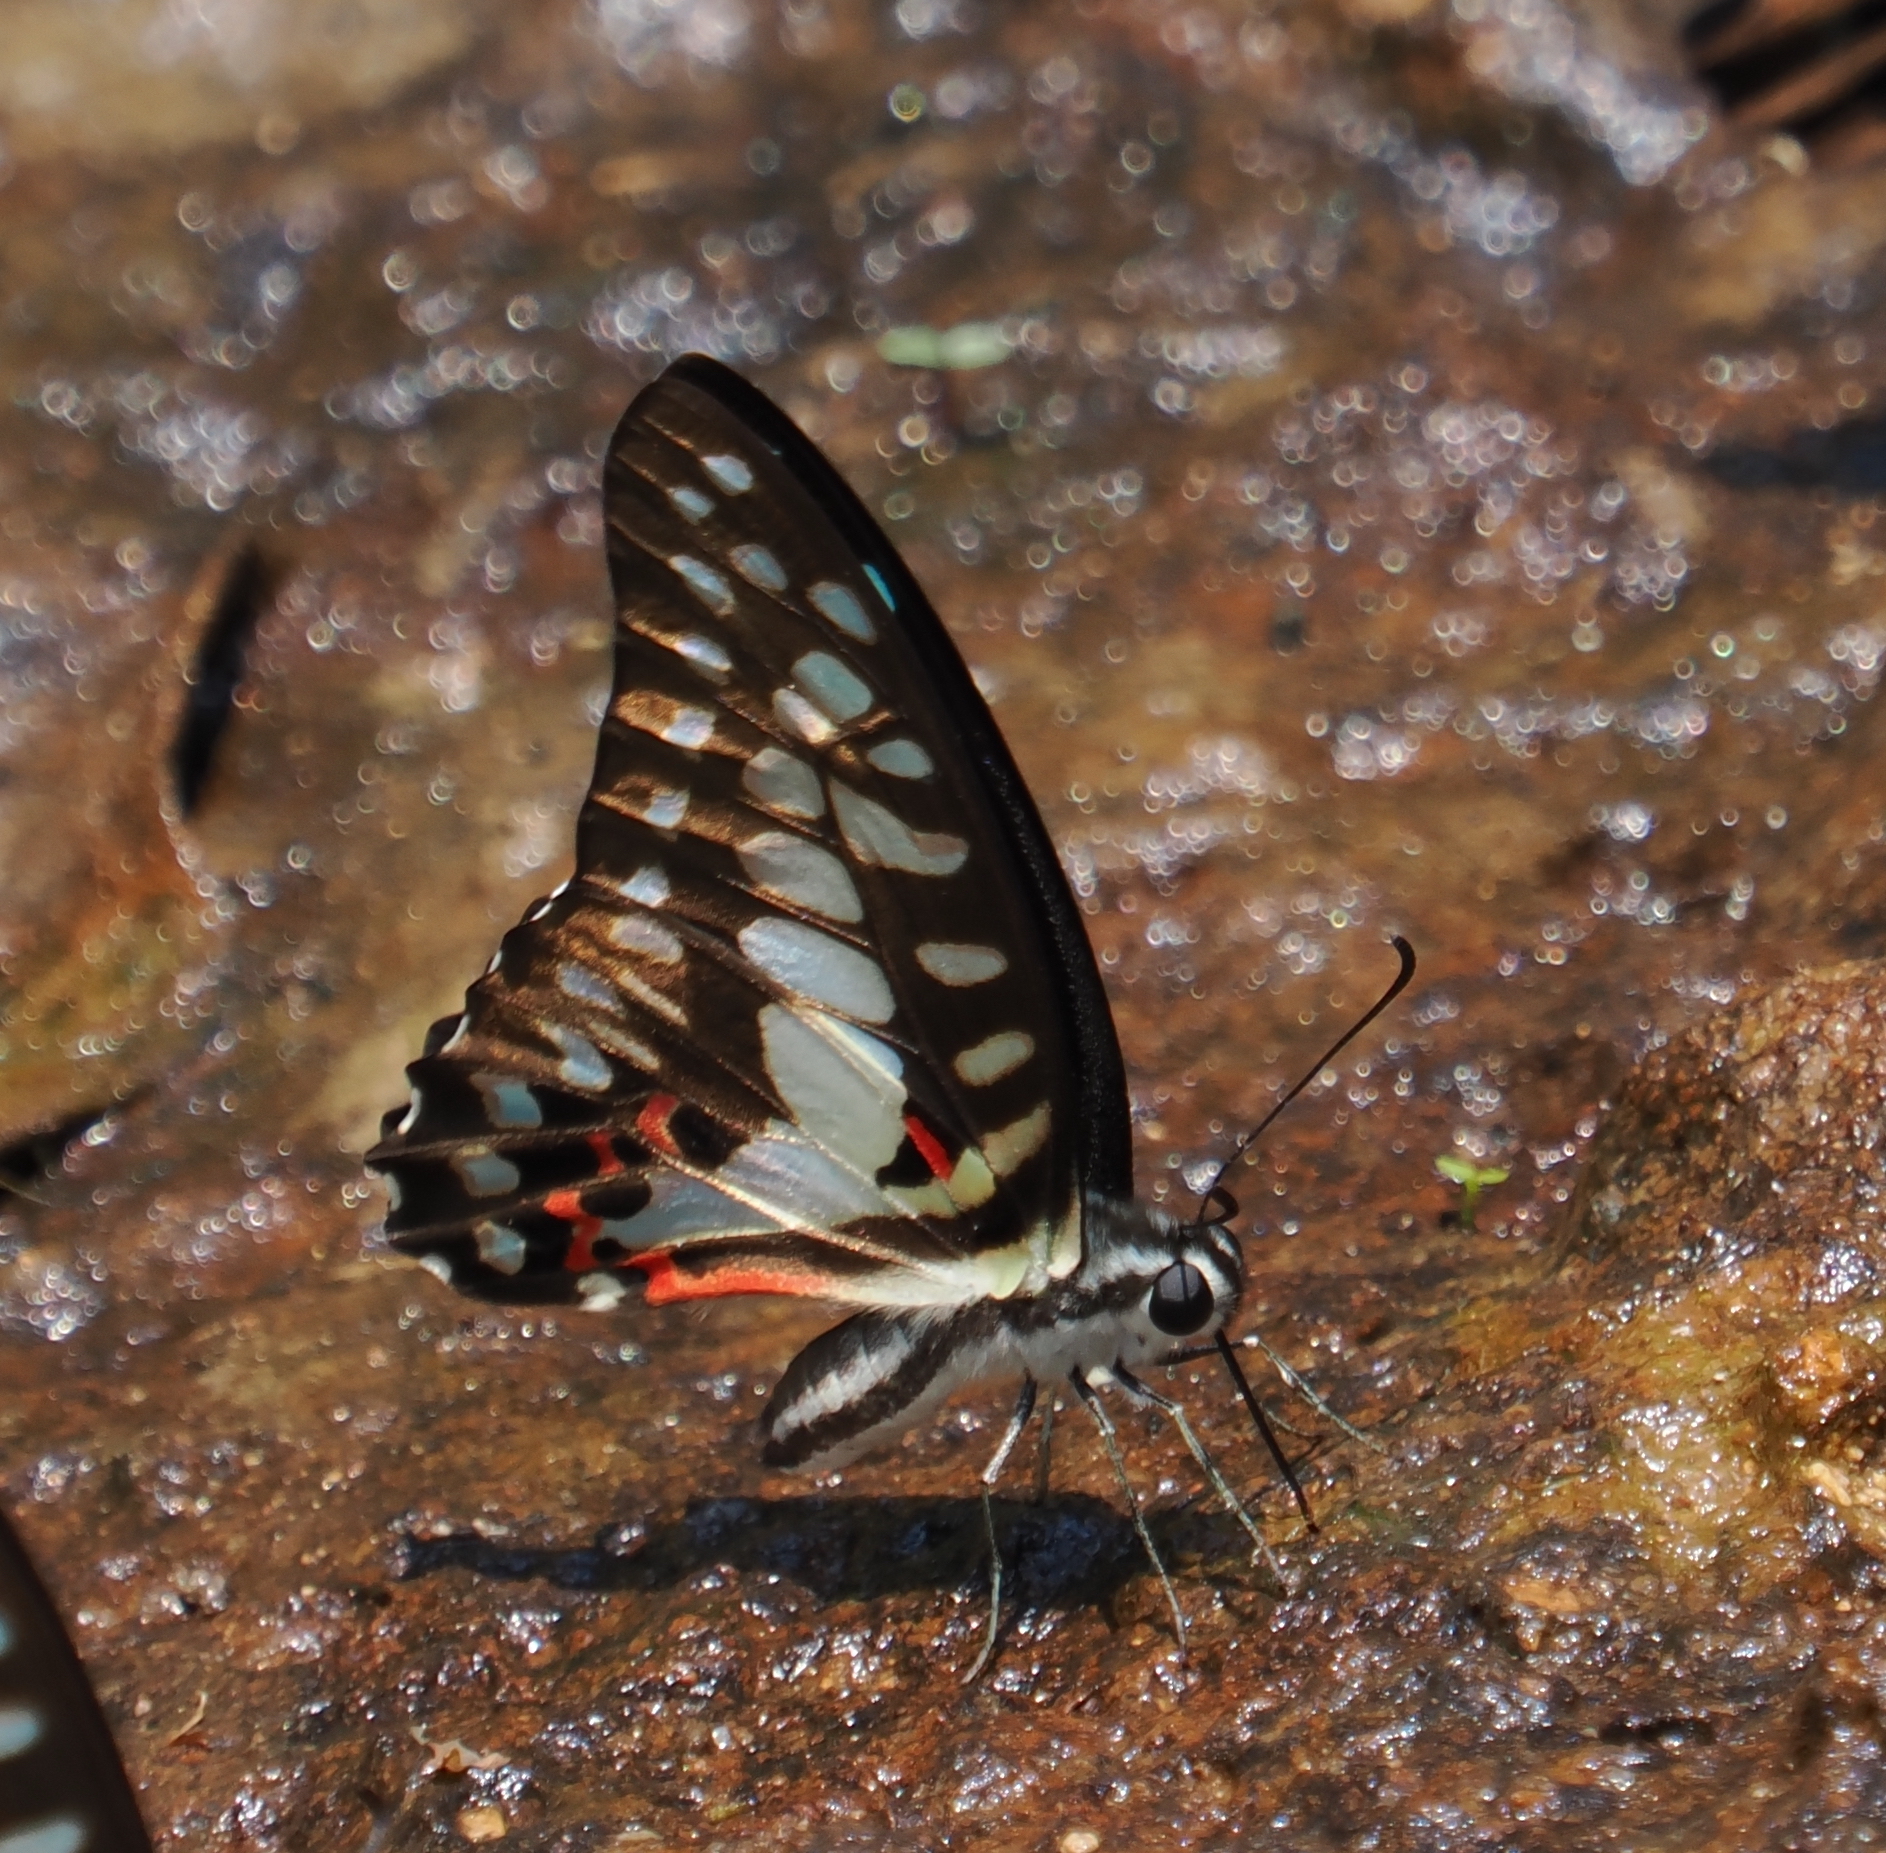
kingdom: Animalia
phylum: Arthropoda
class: Insecta
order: Lepidoptera
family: Papilionidae
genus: Graphium
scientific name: Graphium doson
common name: Common jay
